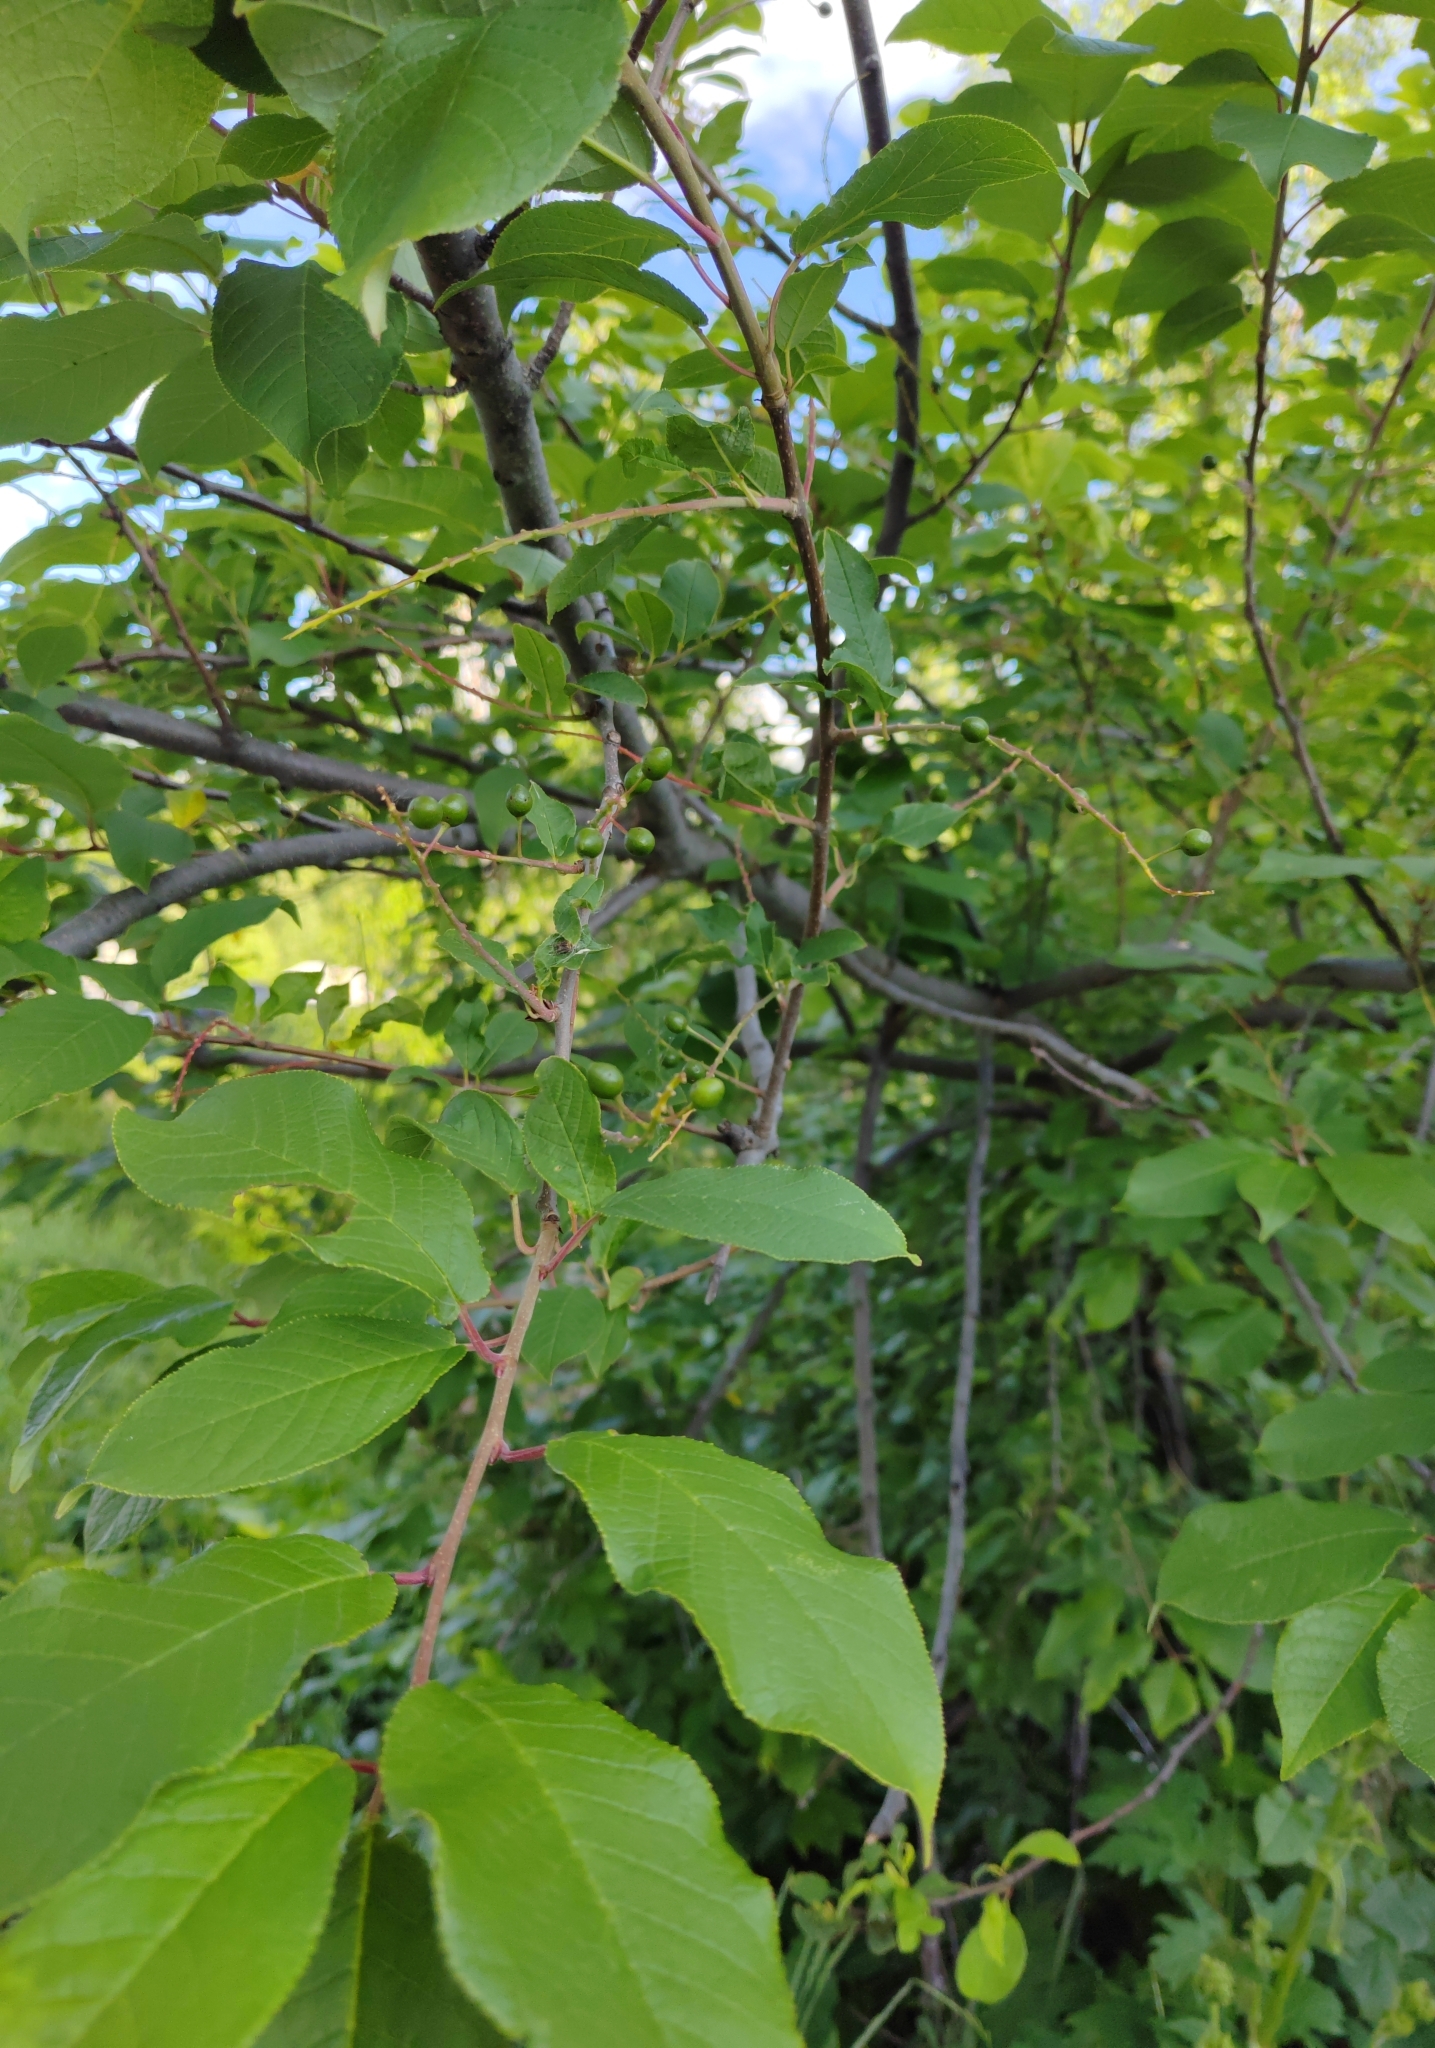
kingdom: Plantae
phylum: Tracheophyta
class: Magnoliopsida
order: Rosales
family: Rosaceae
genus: Prunus
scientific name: Prunus padus
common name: Bird cherry
